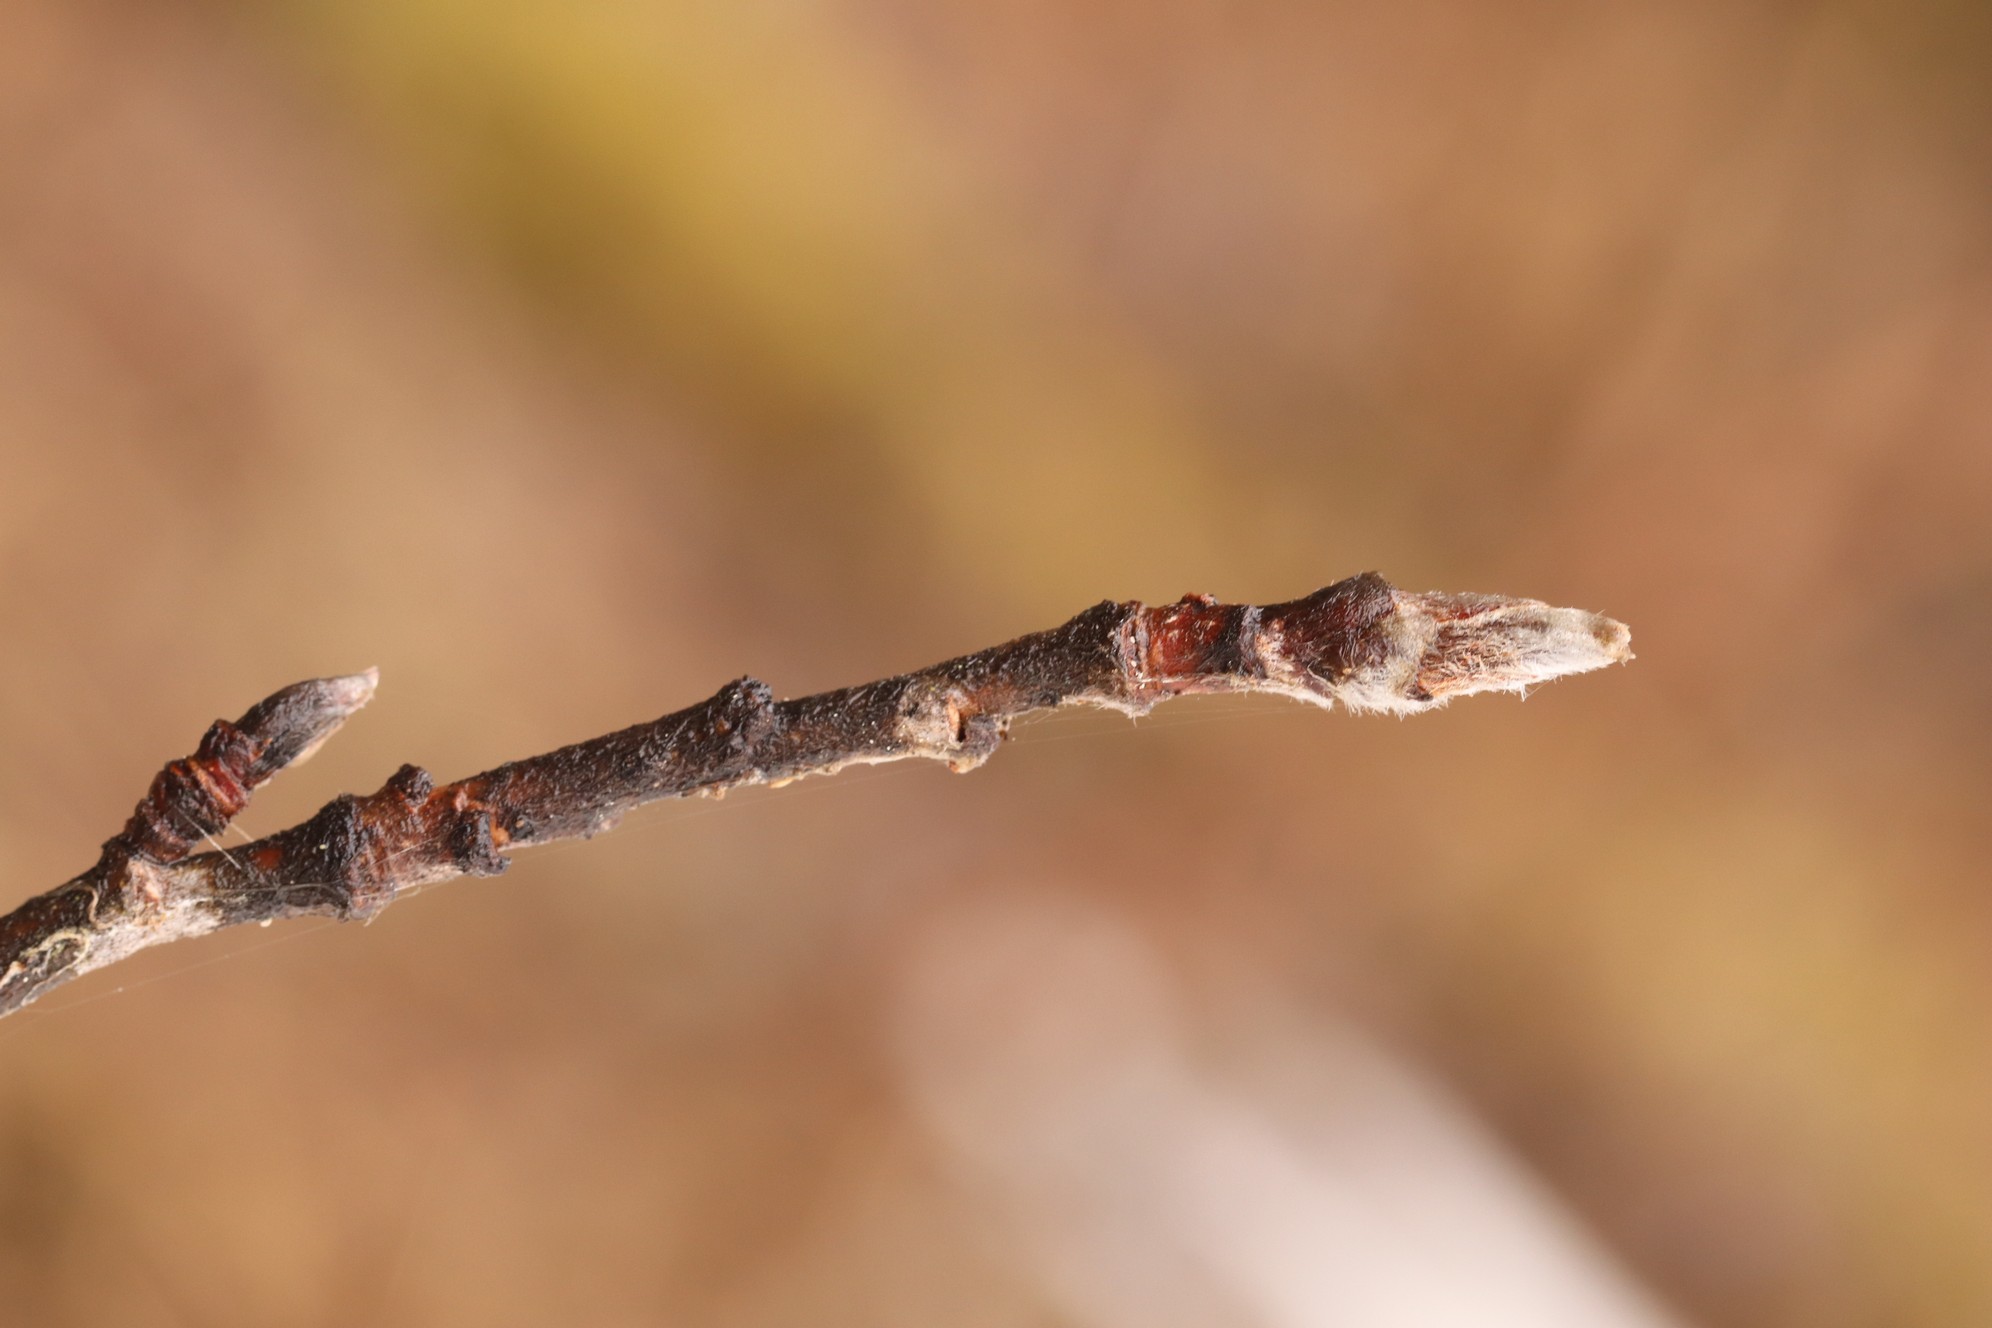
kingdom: Plantae
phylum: Tracheophyta
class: Magnoliopsida
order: Rosales
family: Rosaceae
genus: Sorbus
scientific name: Sorbus aucuparia
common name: Rowan
